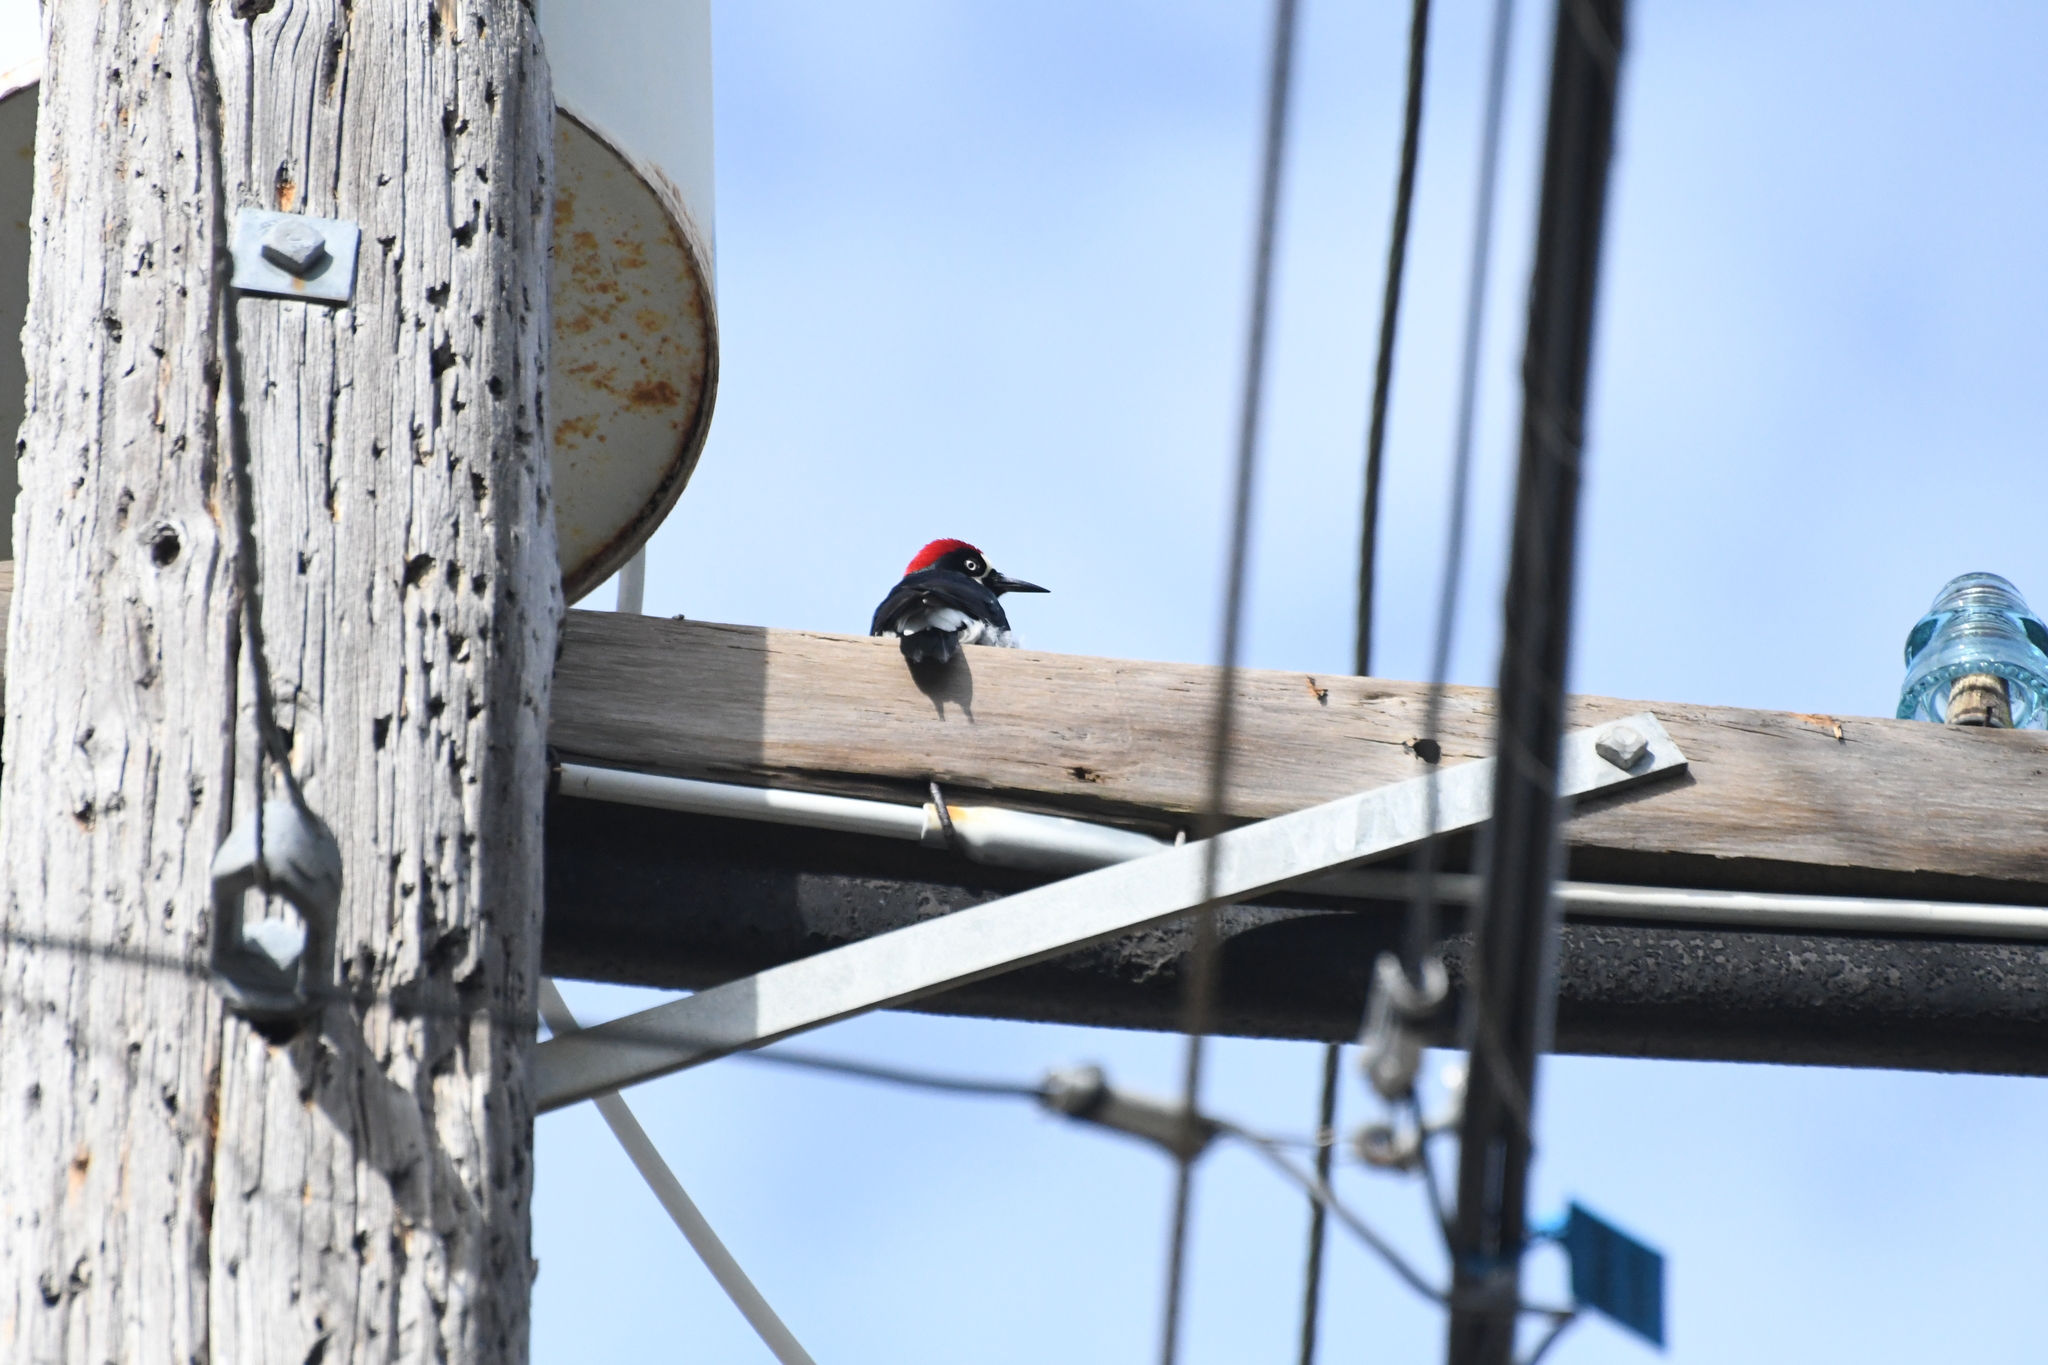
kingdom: Animalia
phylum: Chordata
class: Aves
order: Piciformes
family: Picidae
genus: Melanerpes
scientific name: Melanerpes formicivorus
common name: Acorn woodpecker
